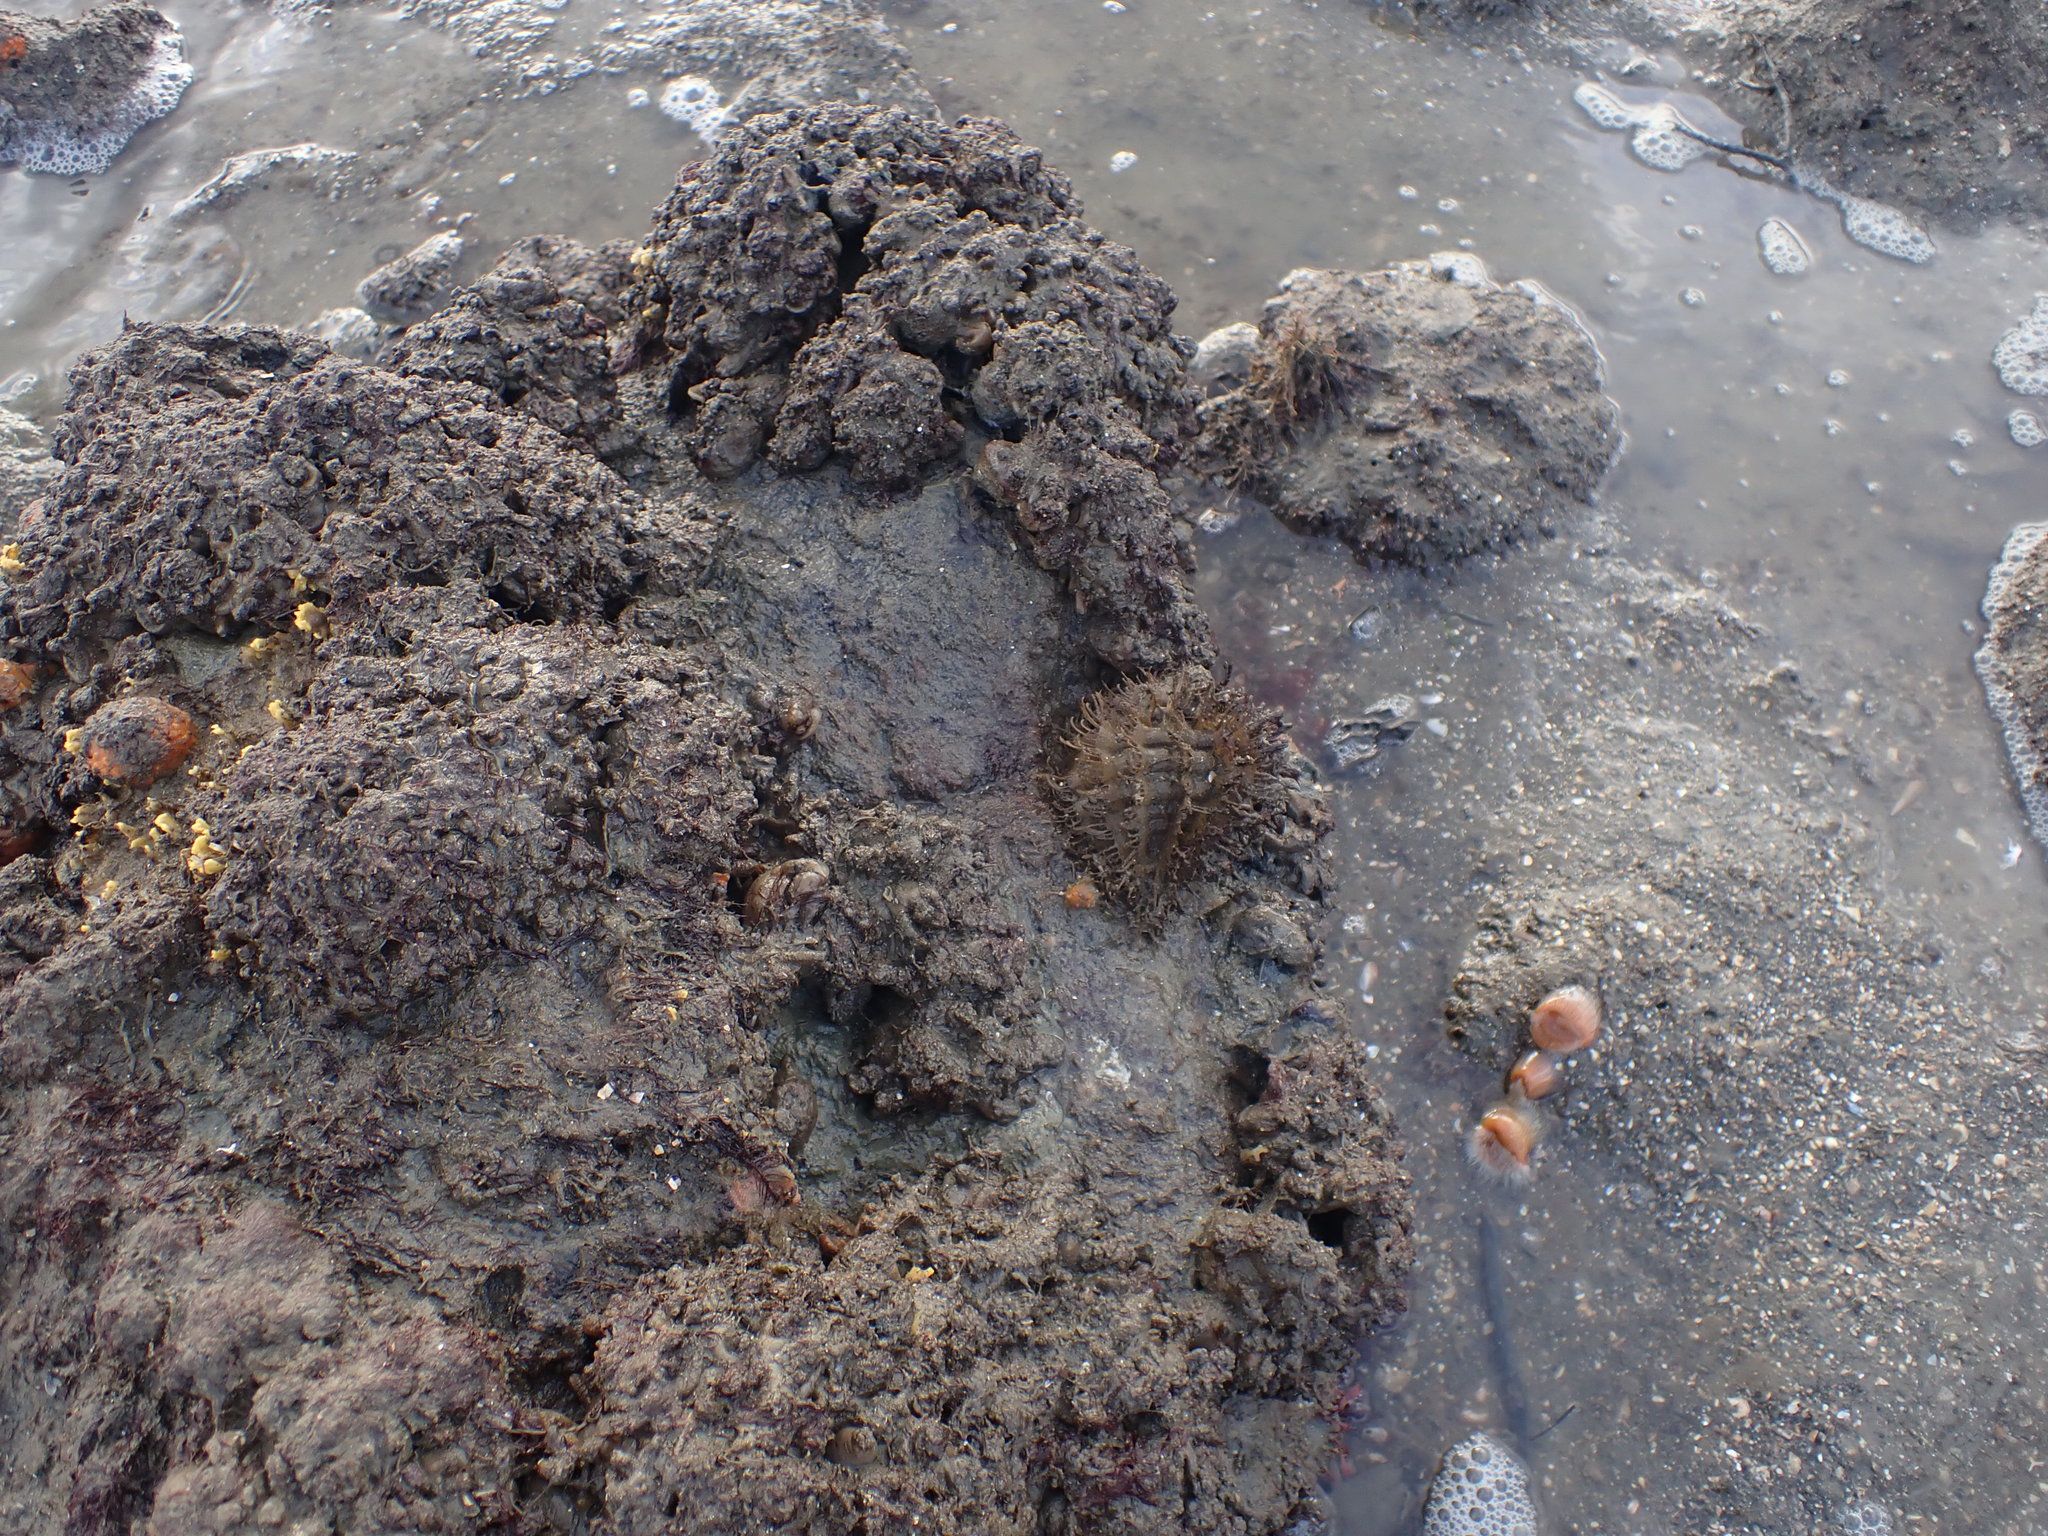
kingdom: Animalia
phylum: Mollusca
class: Gastropoda
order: Littorinimorpha
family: Cymatiidae
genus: Monoplex
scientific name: Monoplex parthenopeus
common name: Giant triton
